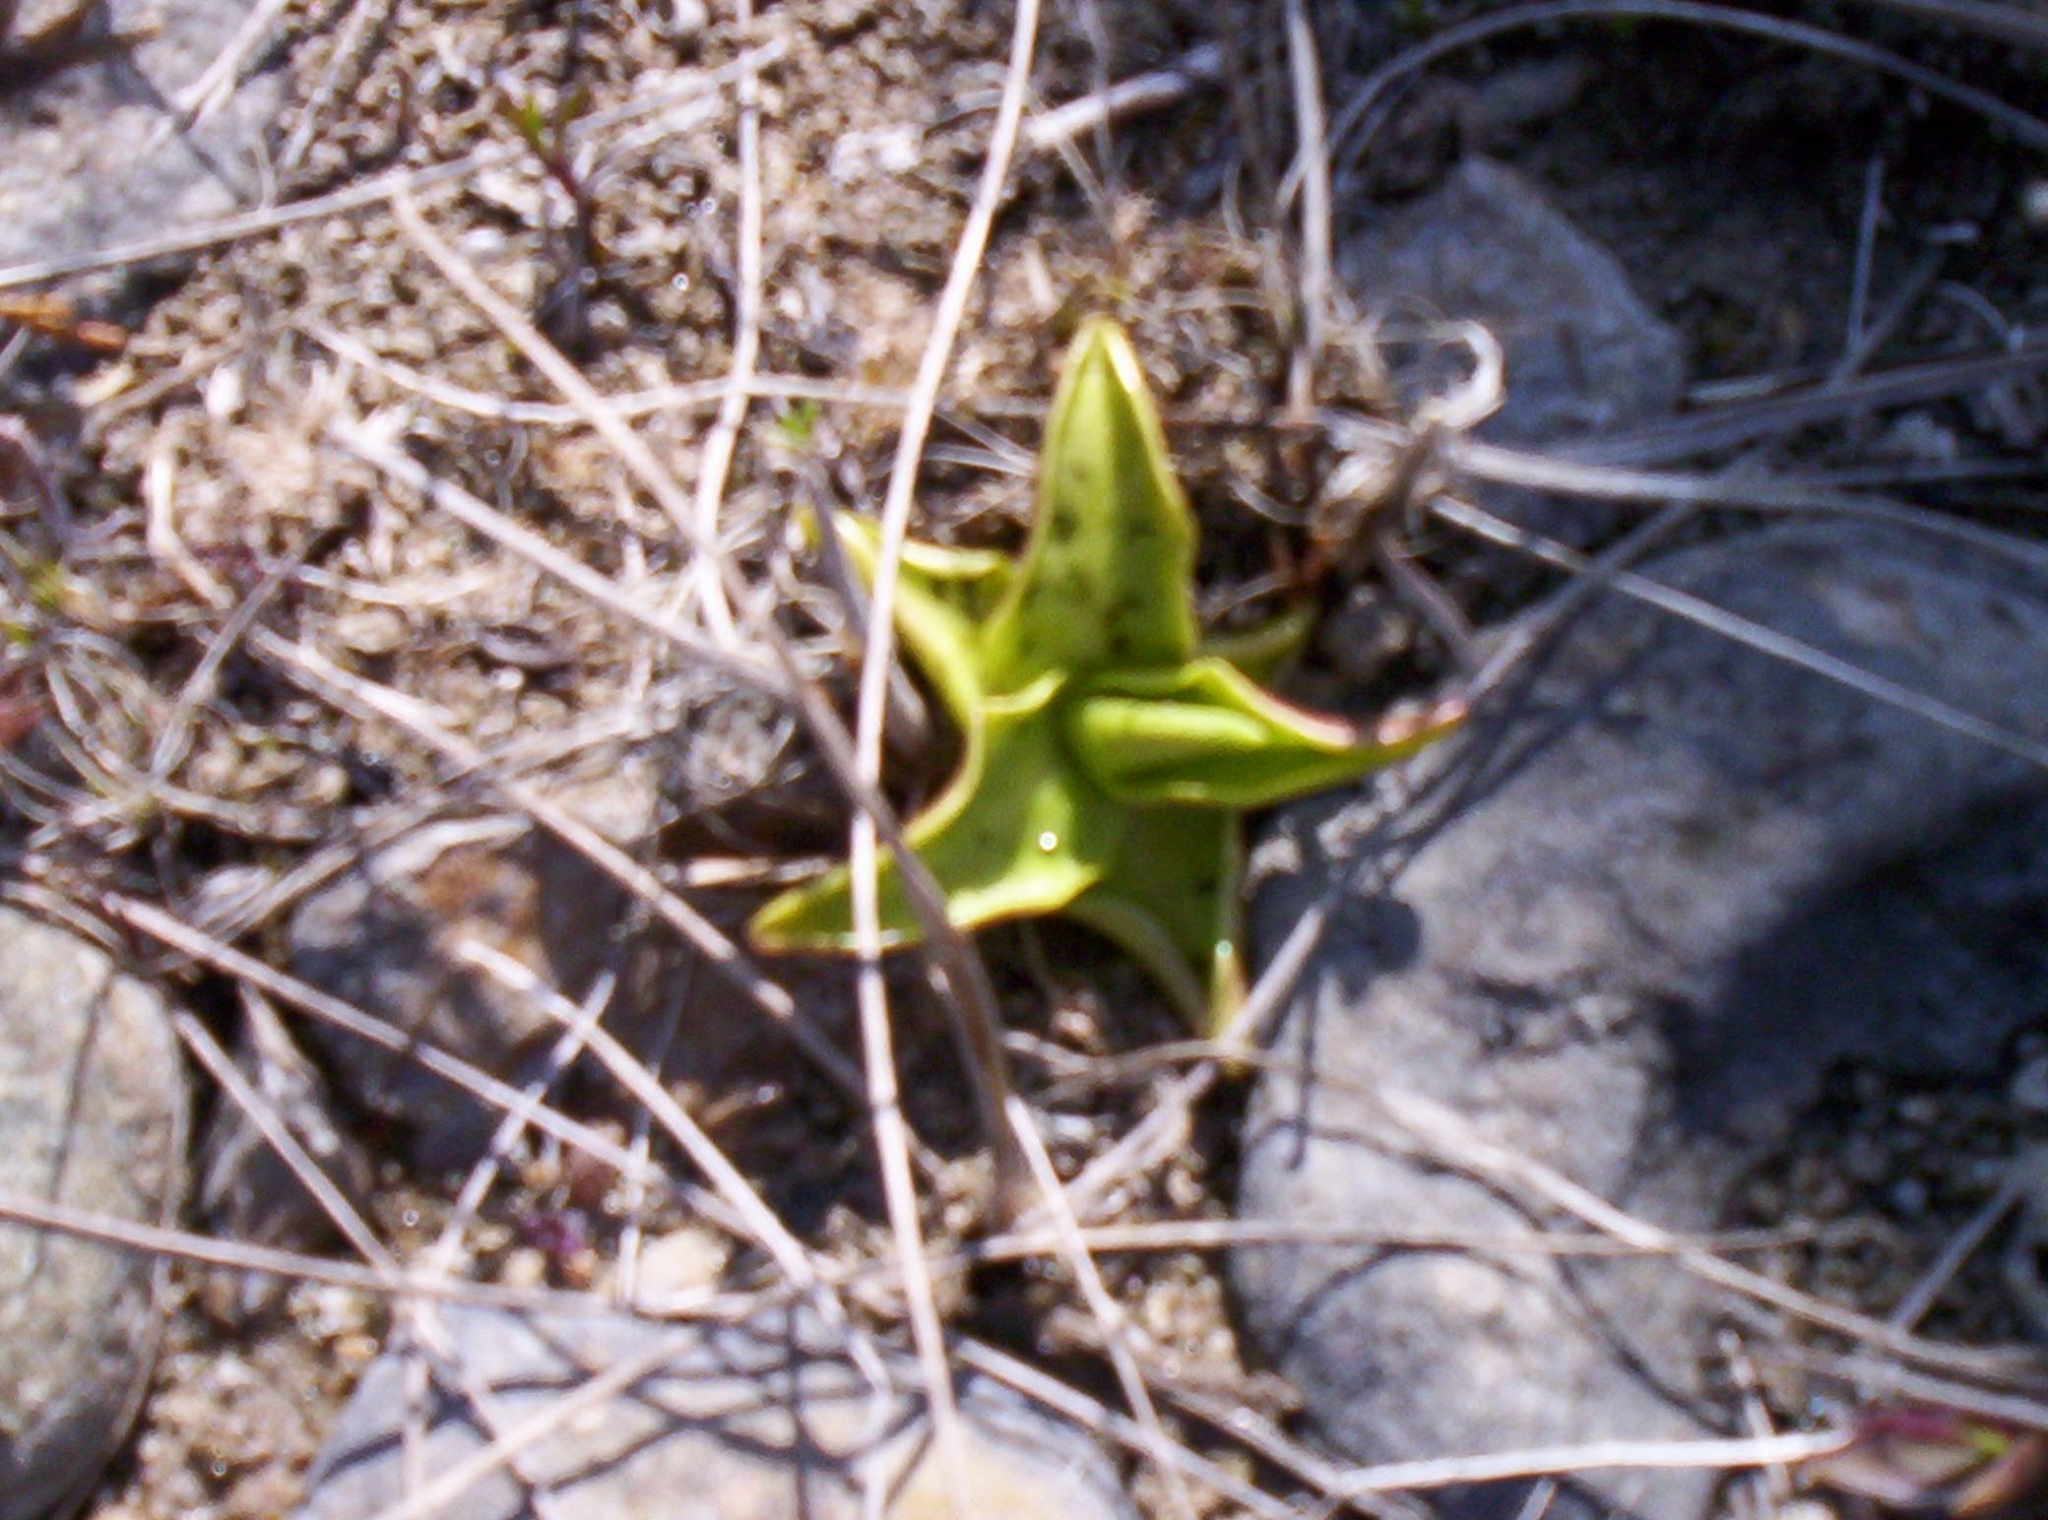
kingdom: Plantae
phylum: Tracheophyta
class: Magnoliopsida
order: Lamiales
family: Lentibulariaceae
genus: Pinguicula
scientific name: Pinguicula vulgaris
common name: Common butterwort
